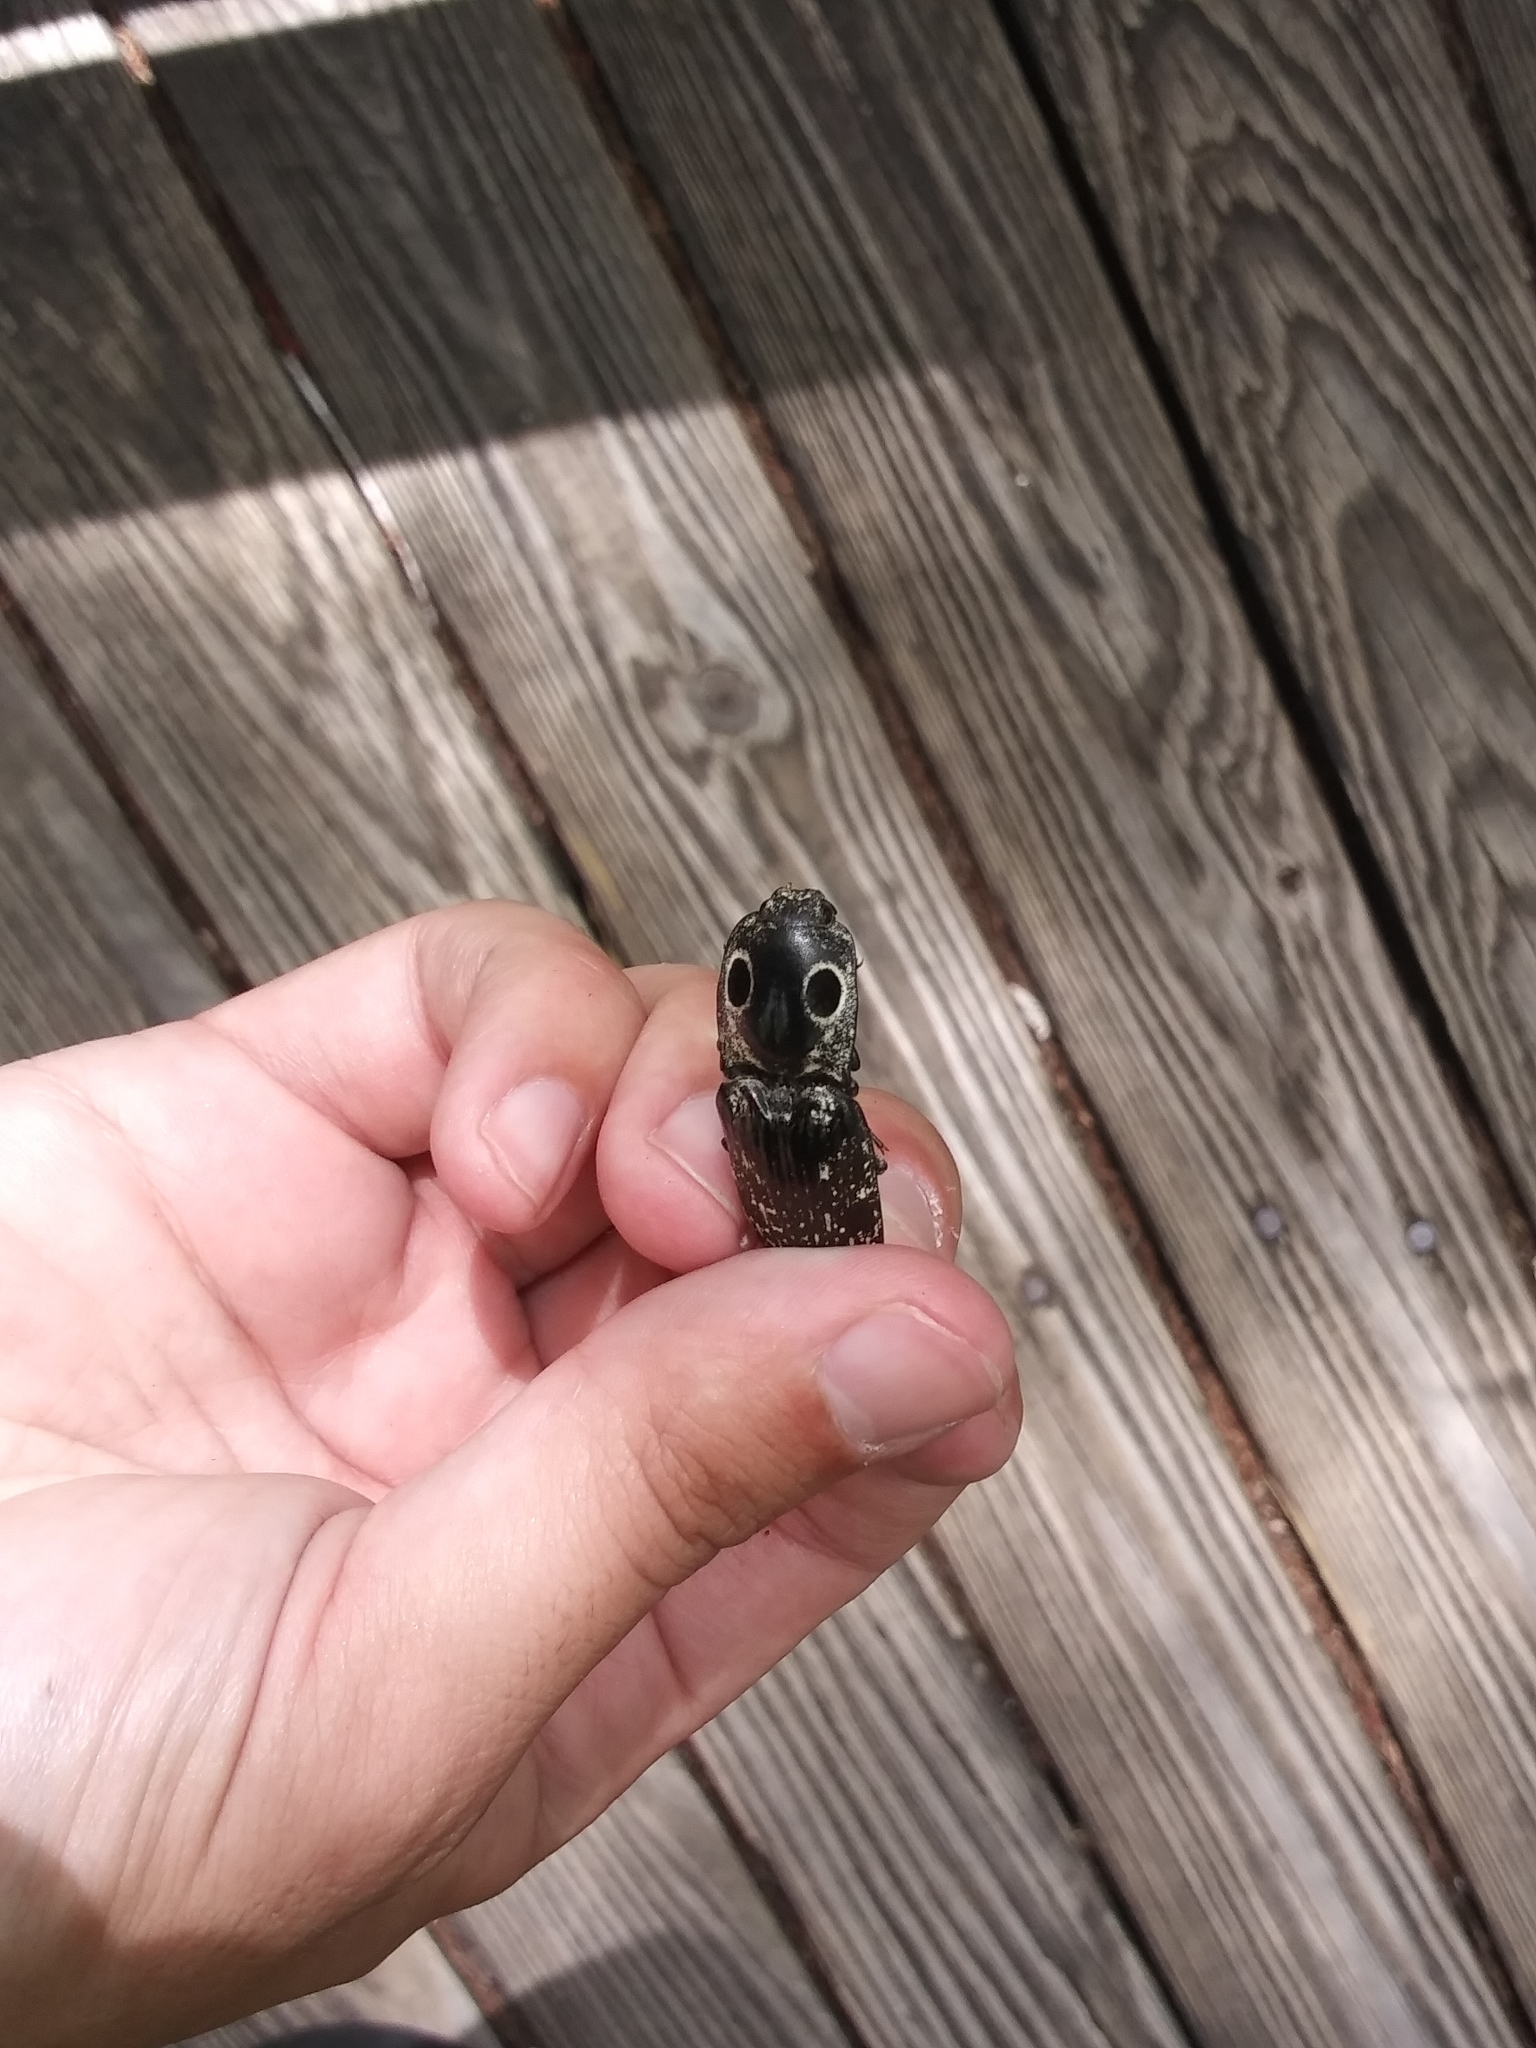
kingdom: Animalia
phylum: Arthropoda
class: Insecta
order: Coleoptera
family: Elateridae
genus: Alaus
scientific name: Alaus oculatus
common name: Eastern eyed click beetle
